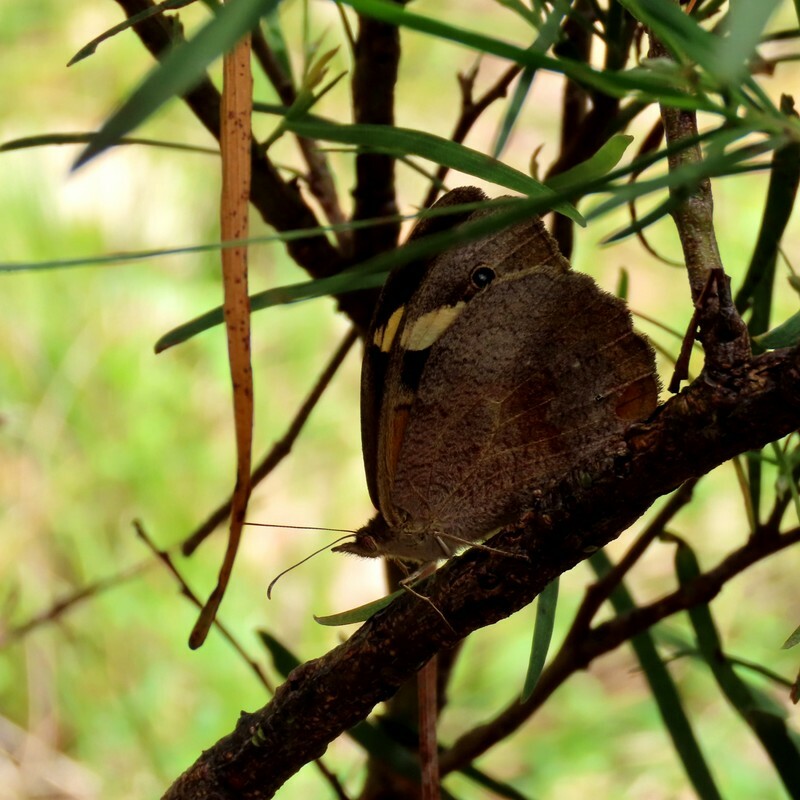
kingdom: Animalia
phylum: Arthropoda
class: Insecta
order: Lepidoptera
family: Nymphalidae
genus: Heteronympha
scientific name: Heteronympha merope
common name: Common brown
